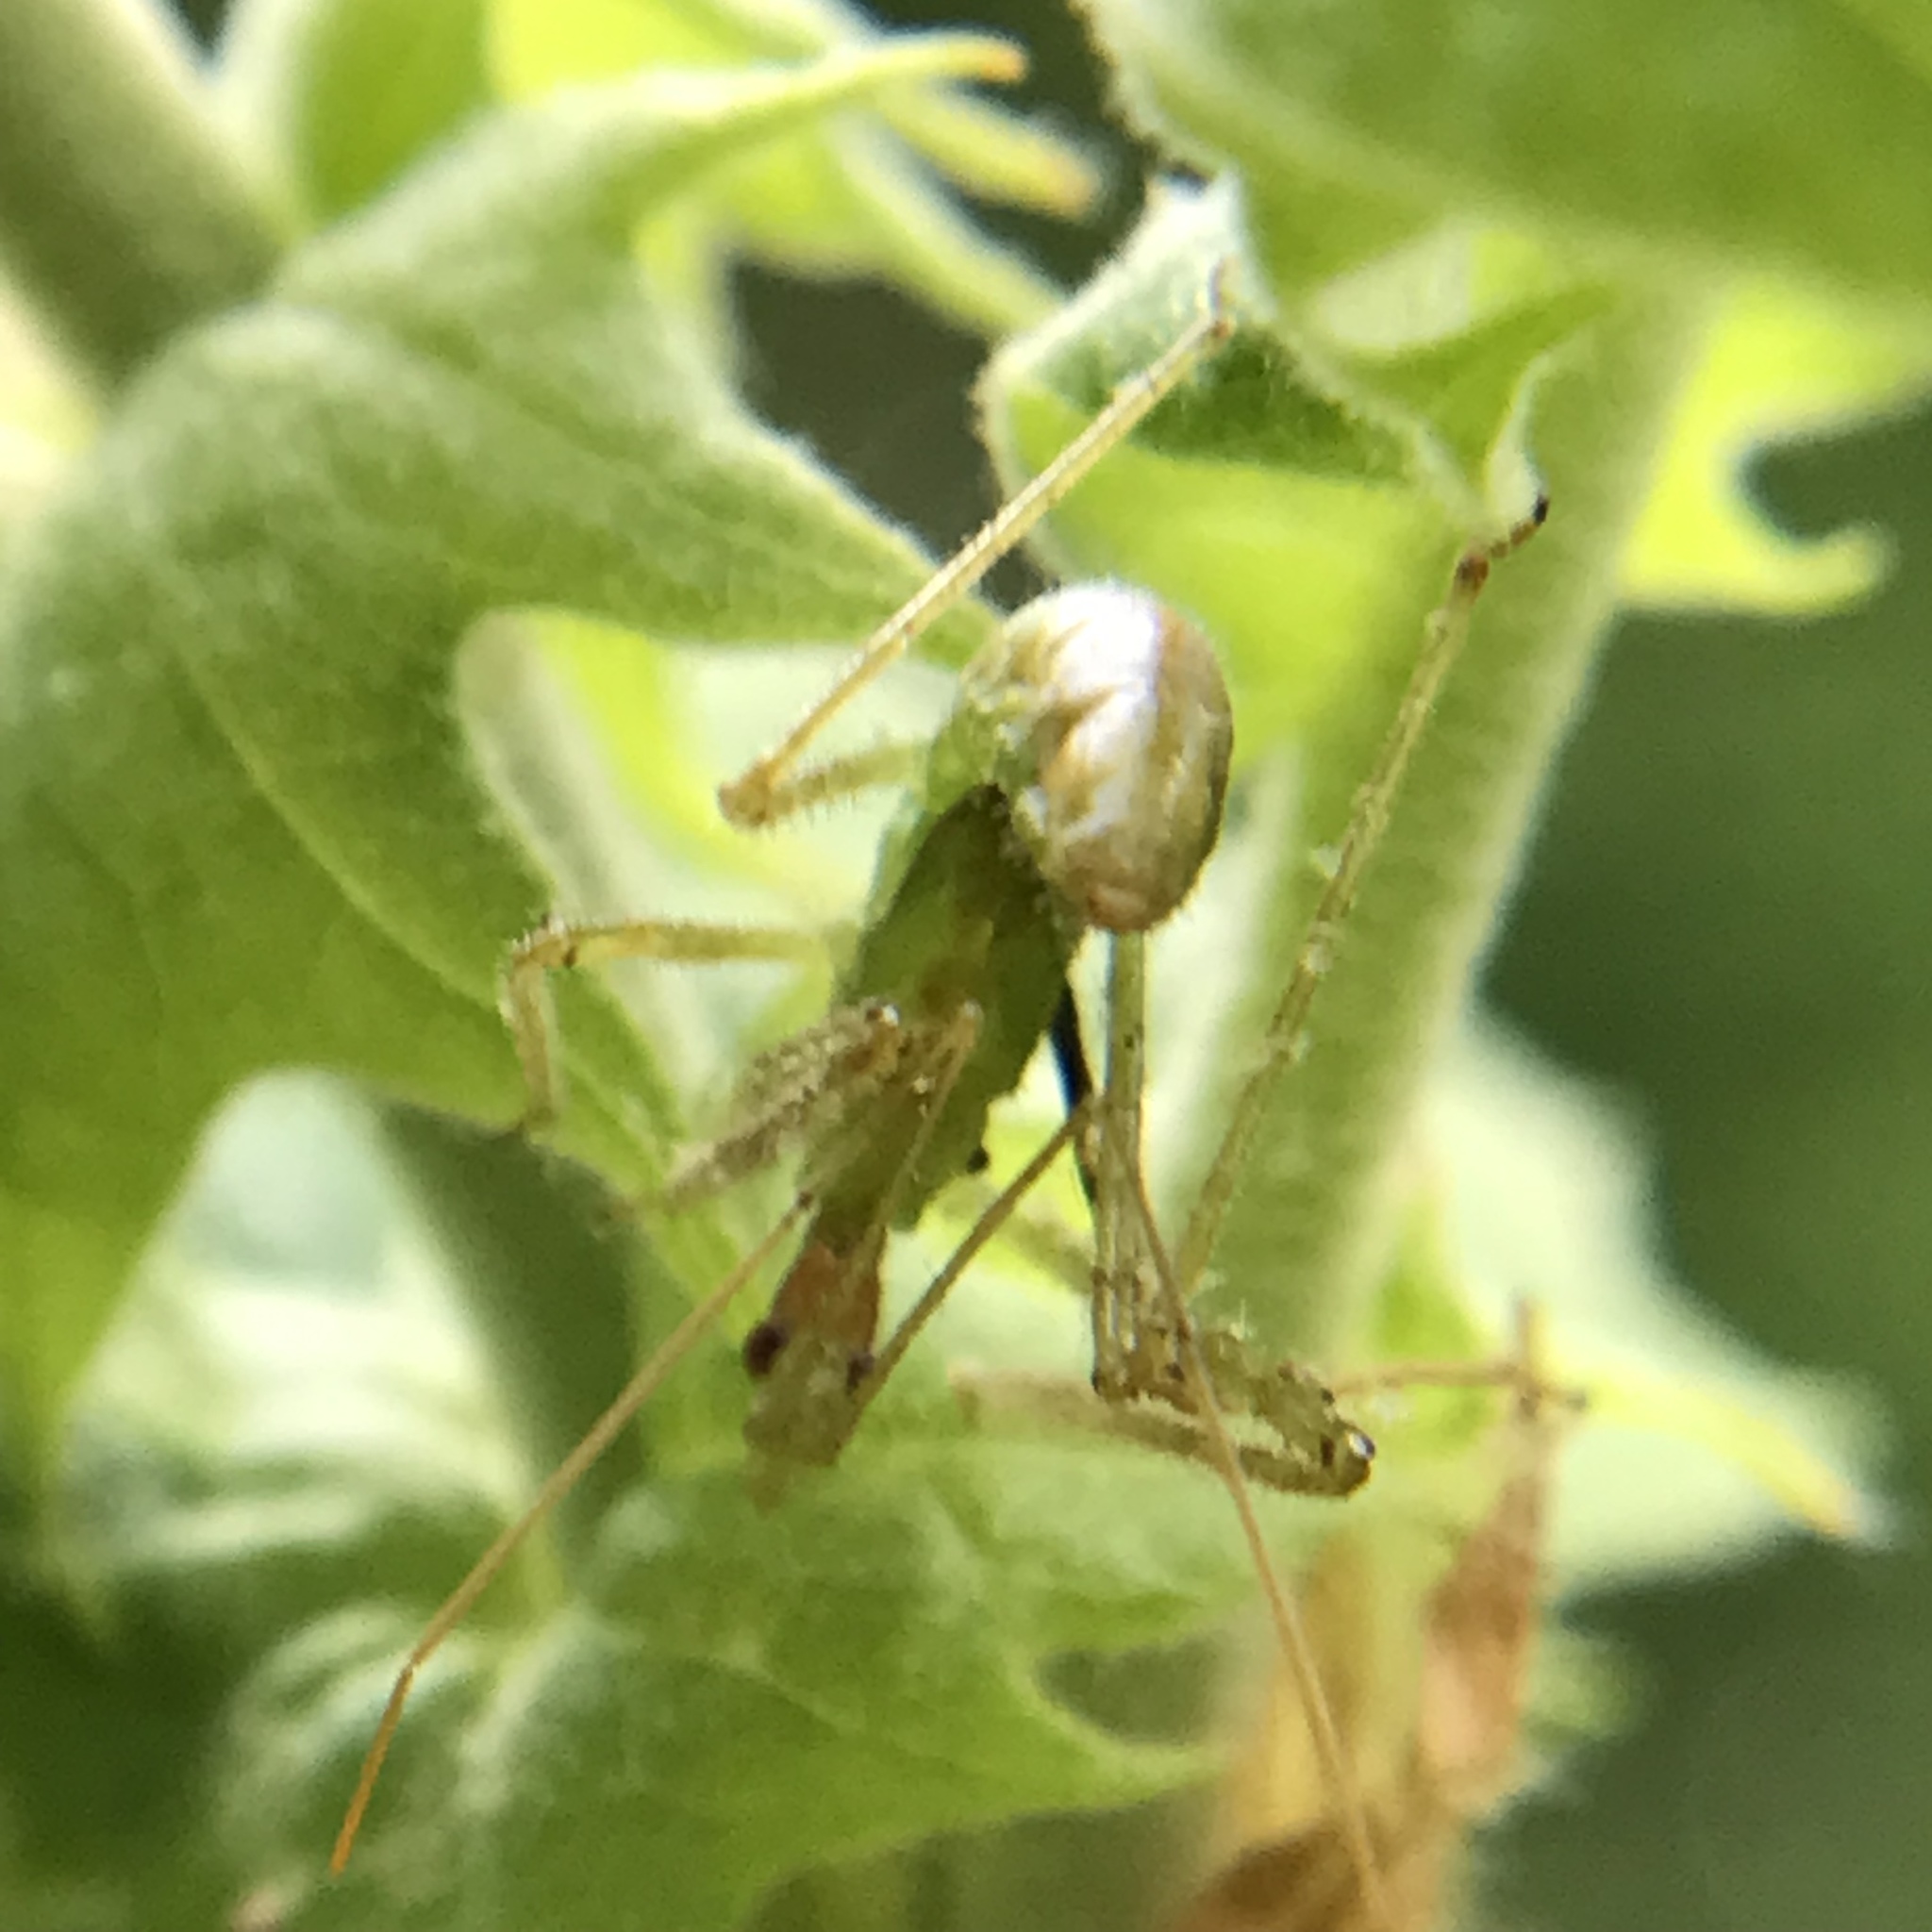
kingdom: Animalia
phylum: Arthropoda
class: Insecta
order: Hemiptera
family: Reduviidae
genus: Zelus
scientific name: Zelus luridus
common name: Pale green assassin bug
